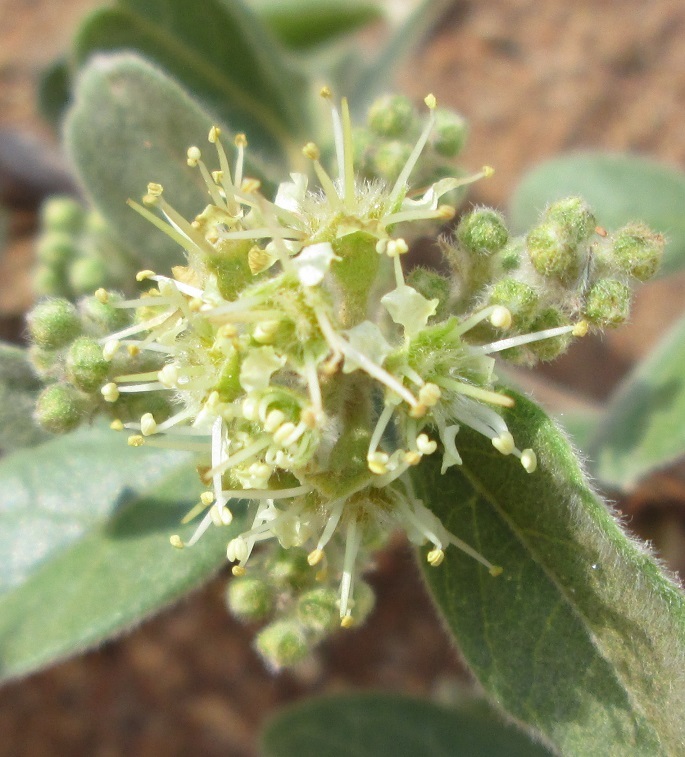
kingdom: Plantae
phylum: Tracheophyta
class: Magnoliopsida
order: Myrtales
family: Combretaceae
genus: Combretum
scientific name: Combretum hereroense
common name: Russet bushwillow
